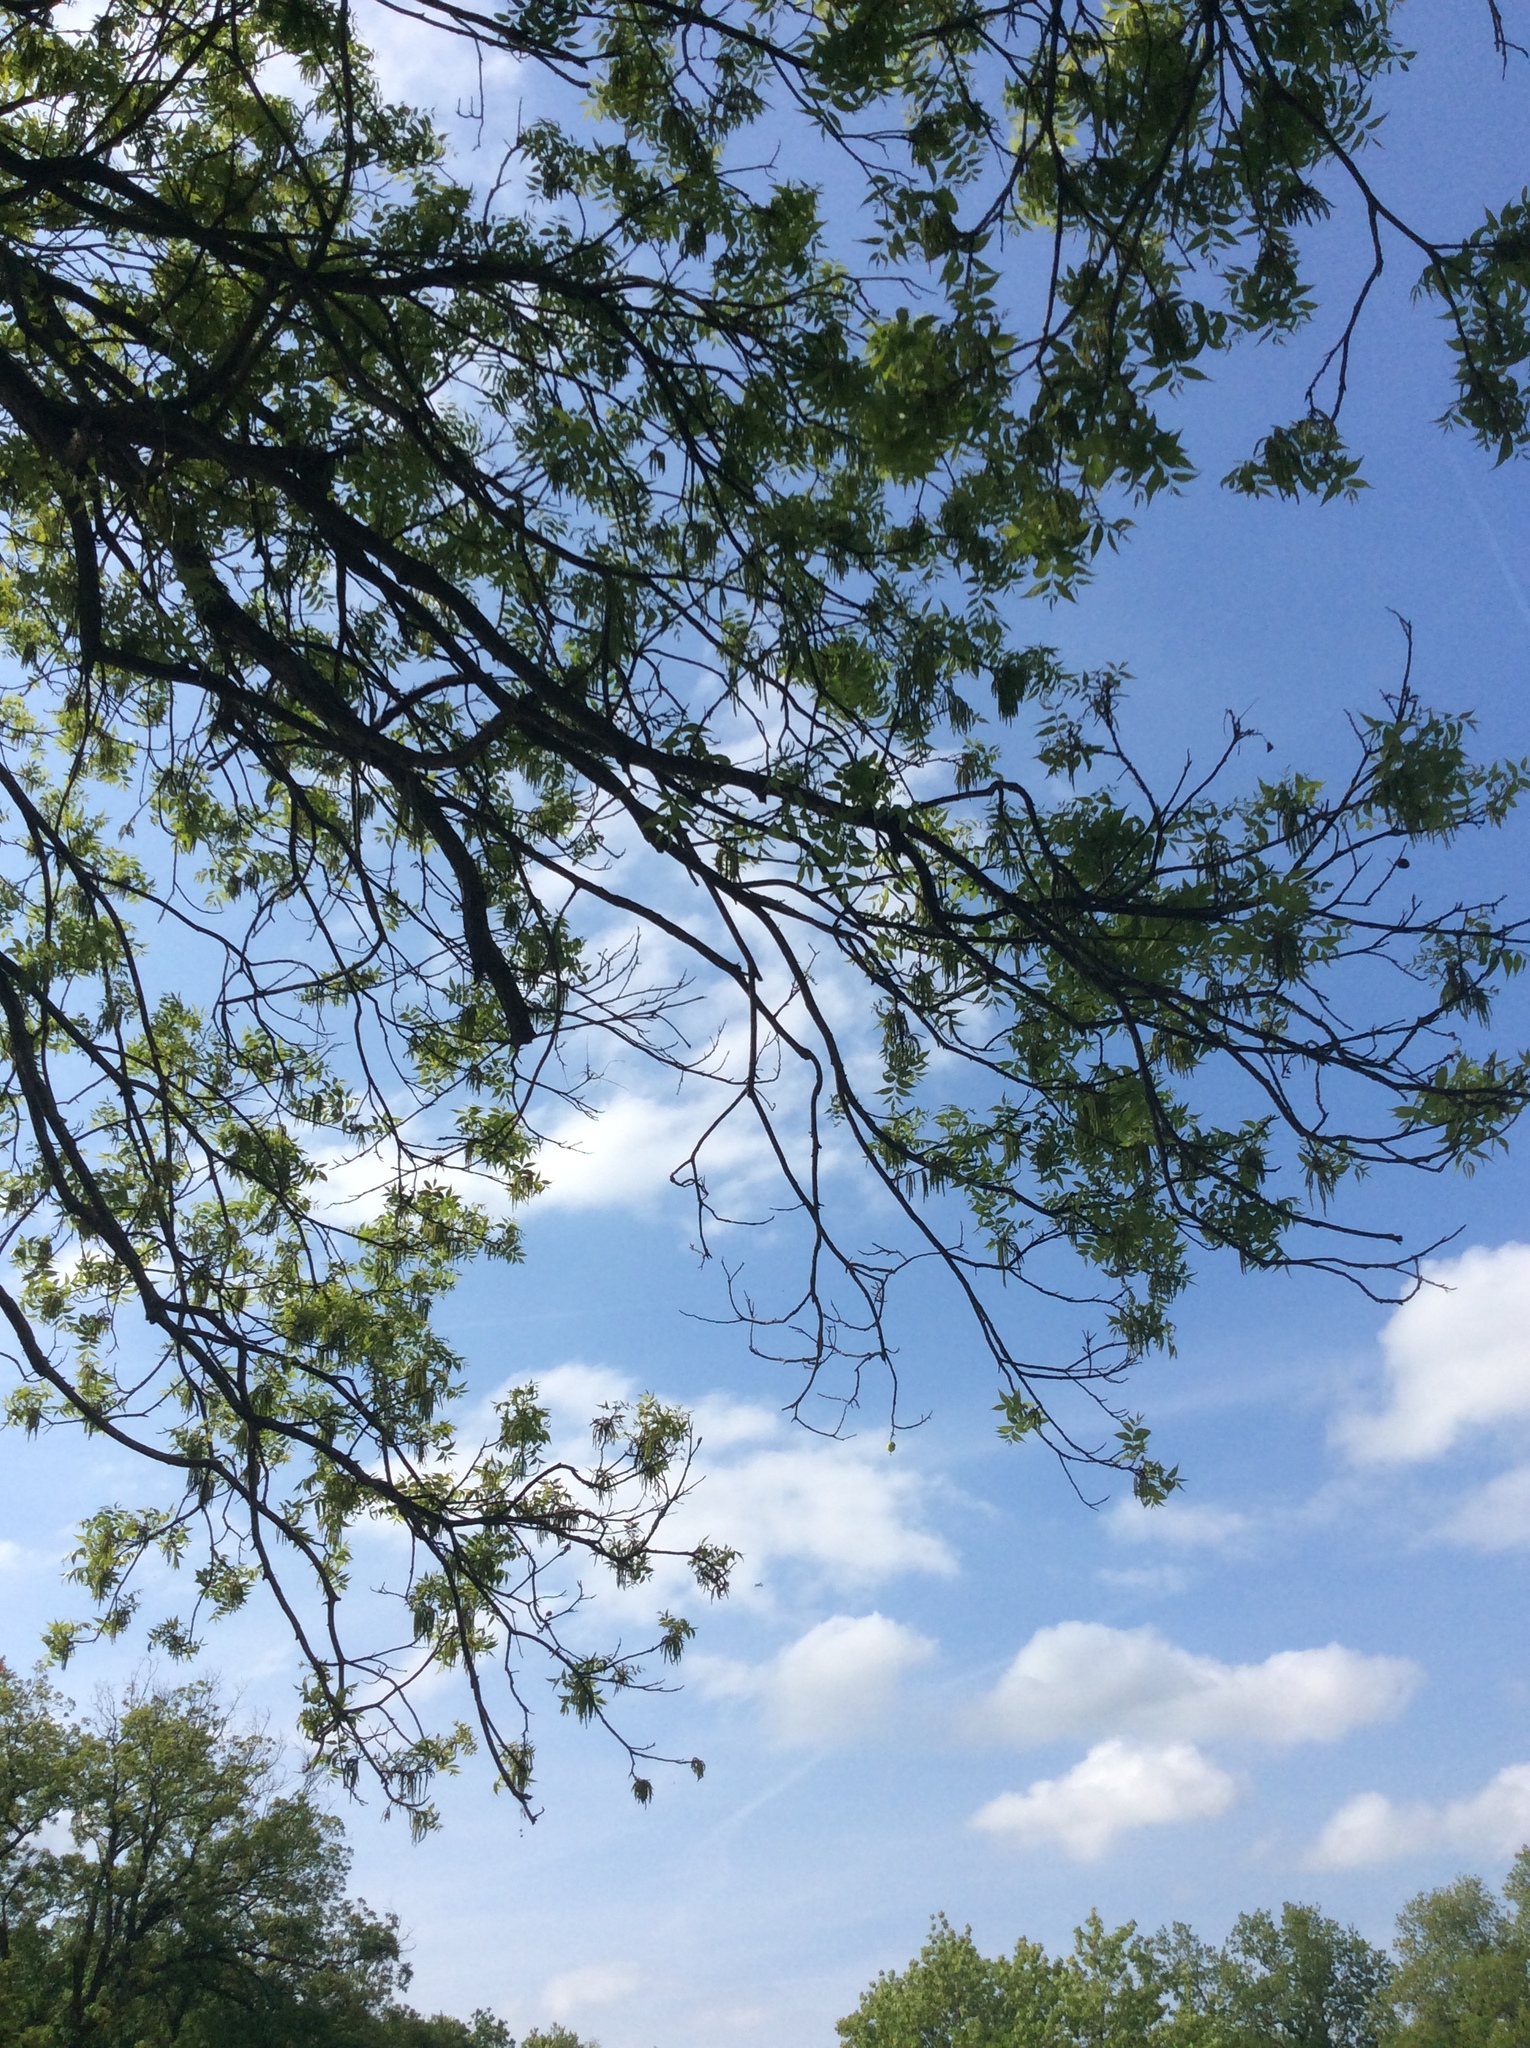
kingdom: Plantae
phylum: Tracheophyta
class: Magnoliopsida
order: Fagales
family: Juglandaceae
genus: Carya
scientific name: Carya illinoinensis
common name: Pecan
